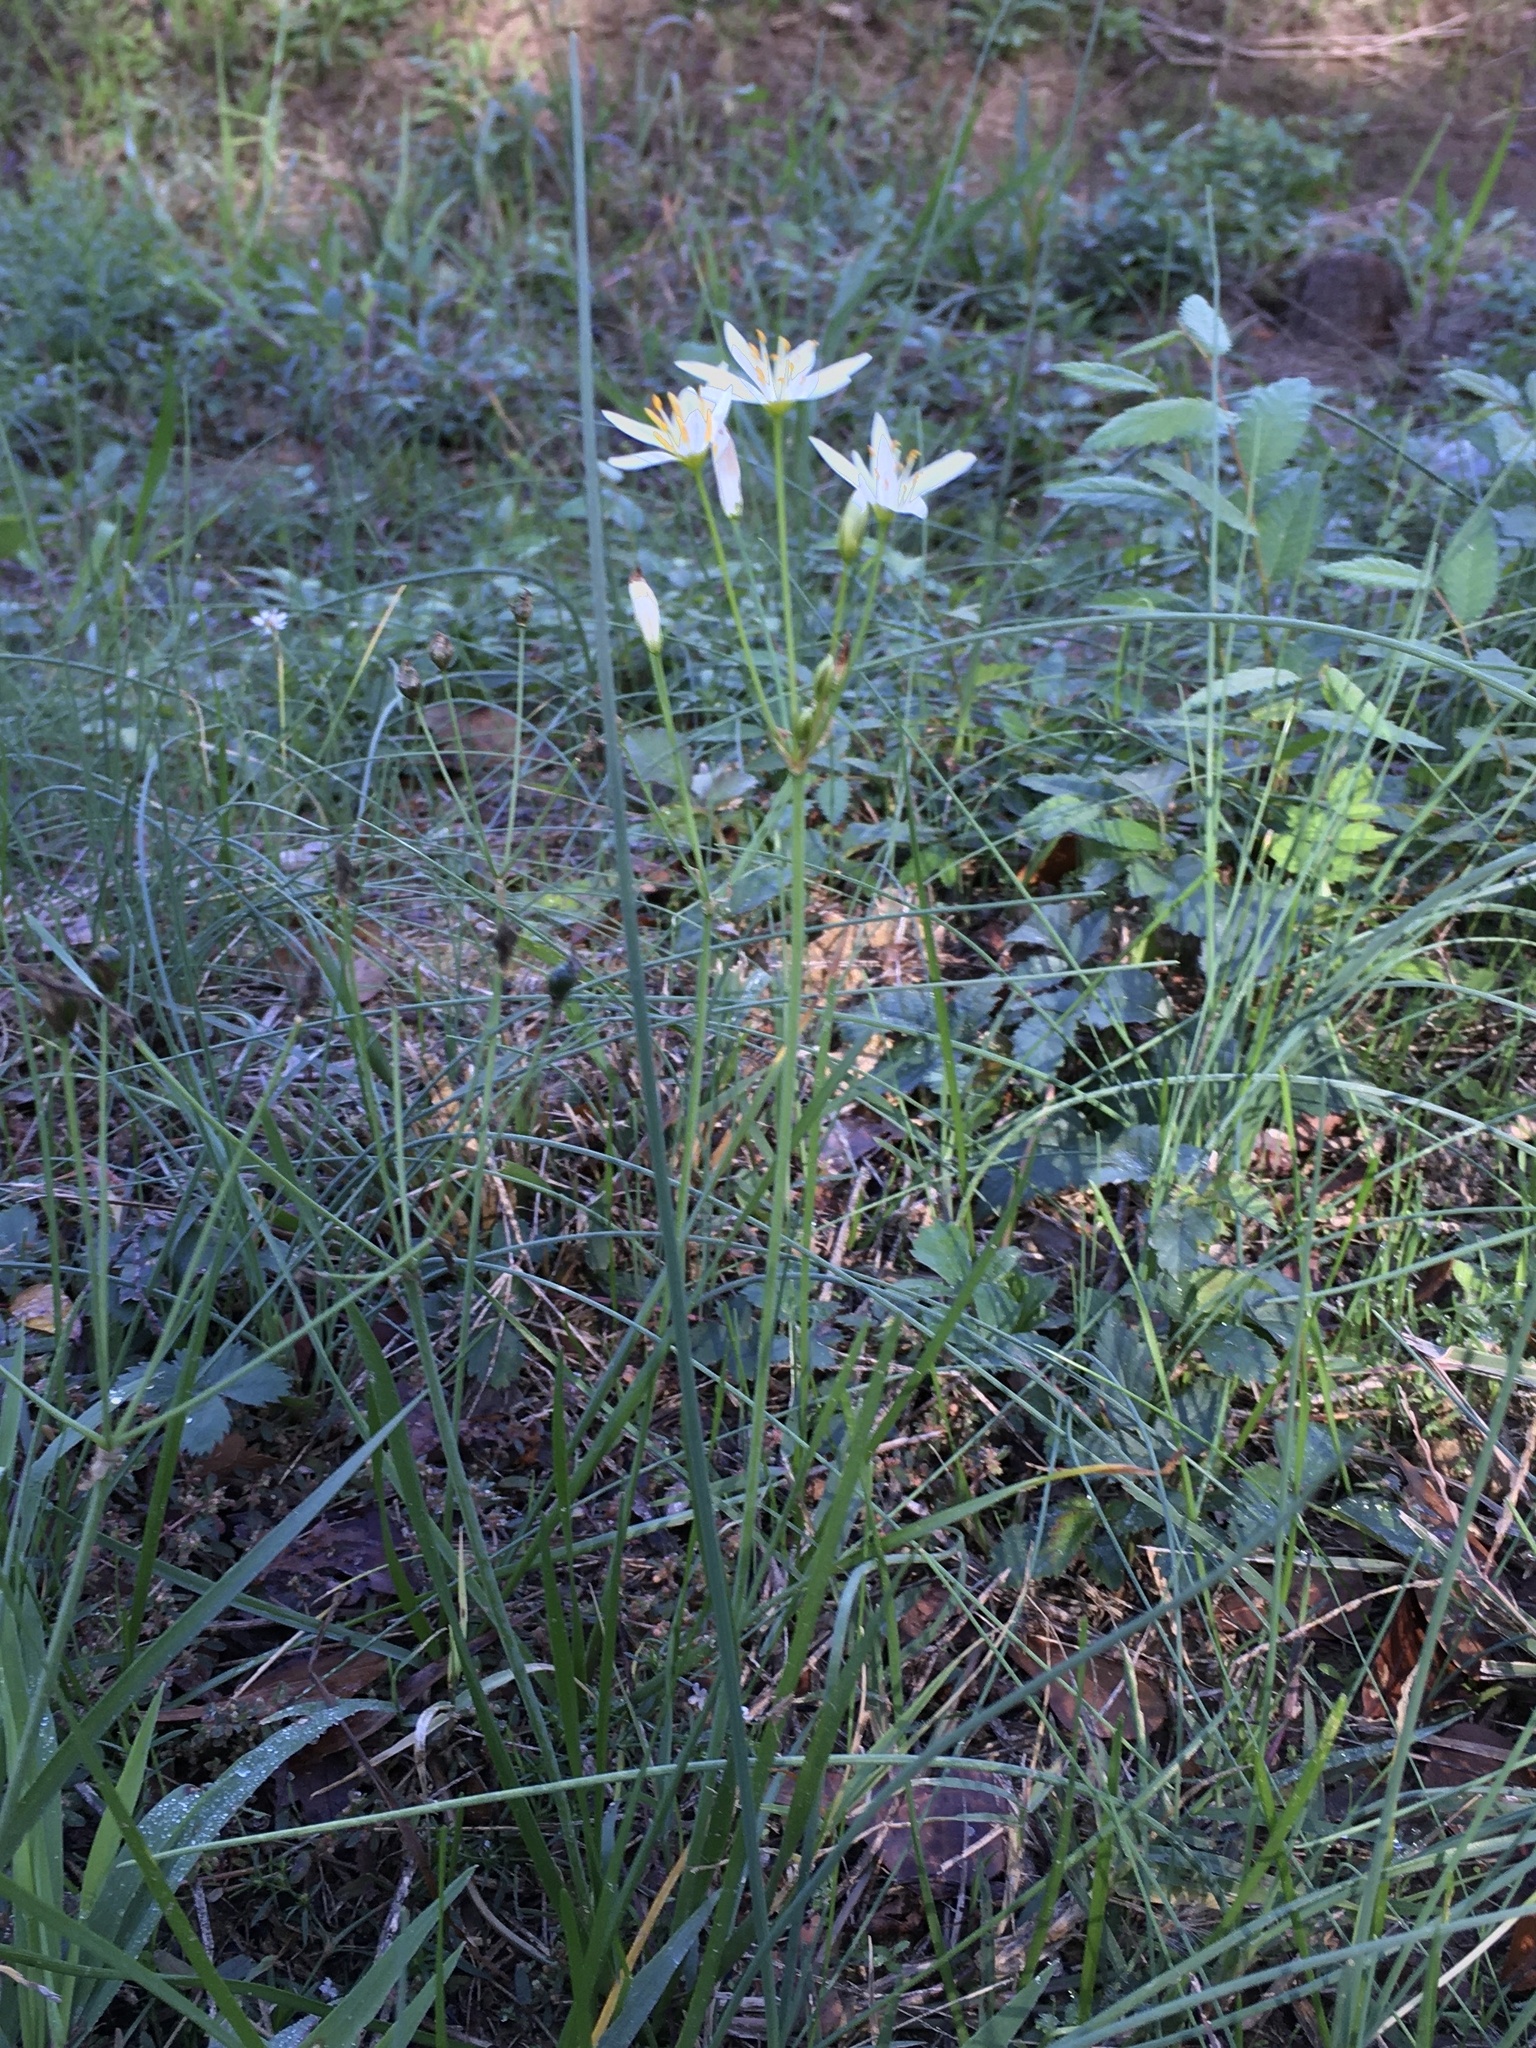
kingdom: Plantae
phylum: Tracheophyta
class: Liliopsida
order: Asparagales
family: Amaryllidaceae
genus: Nothoscordum
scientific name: Nothoscordum bivalve
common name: Crow-poison
